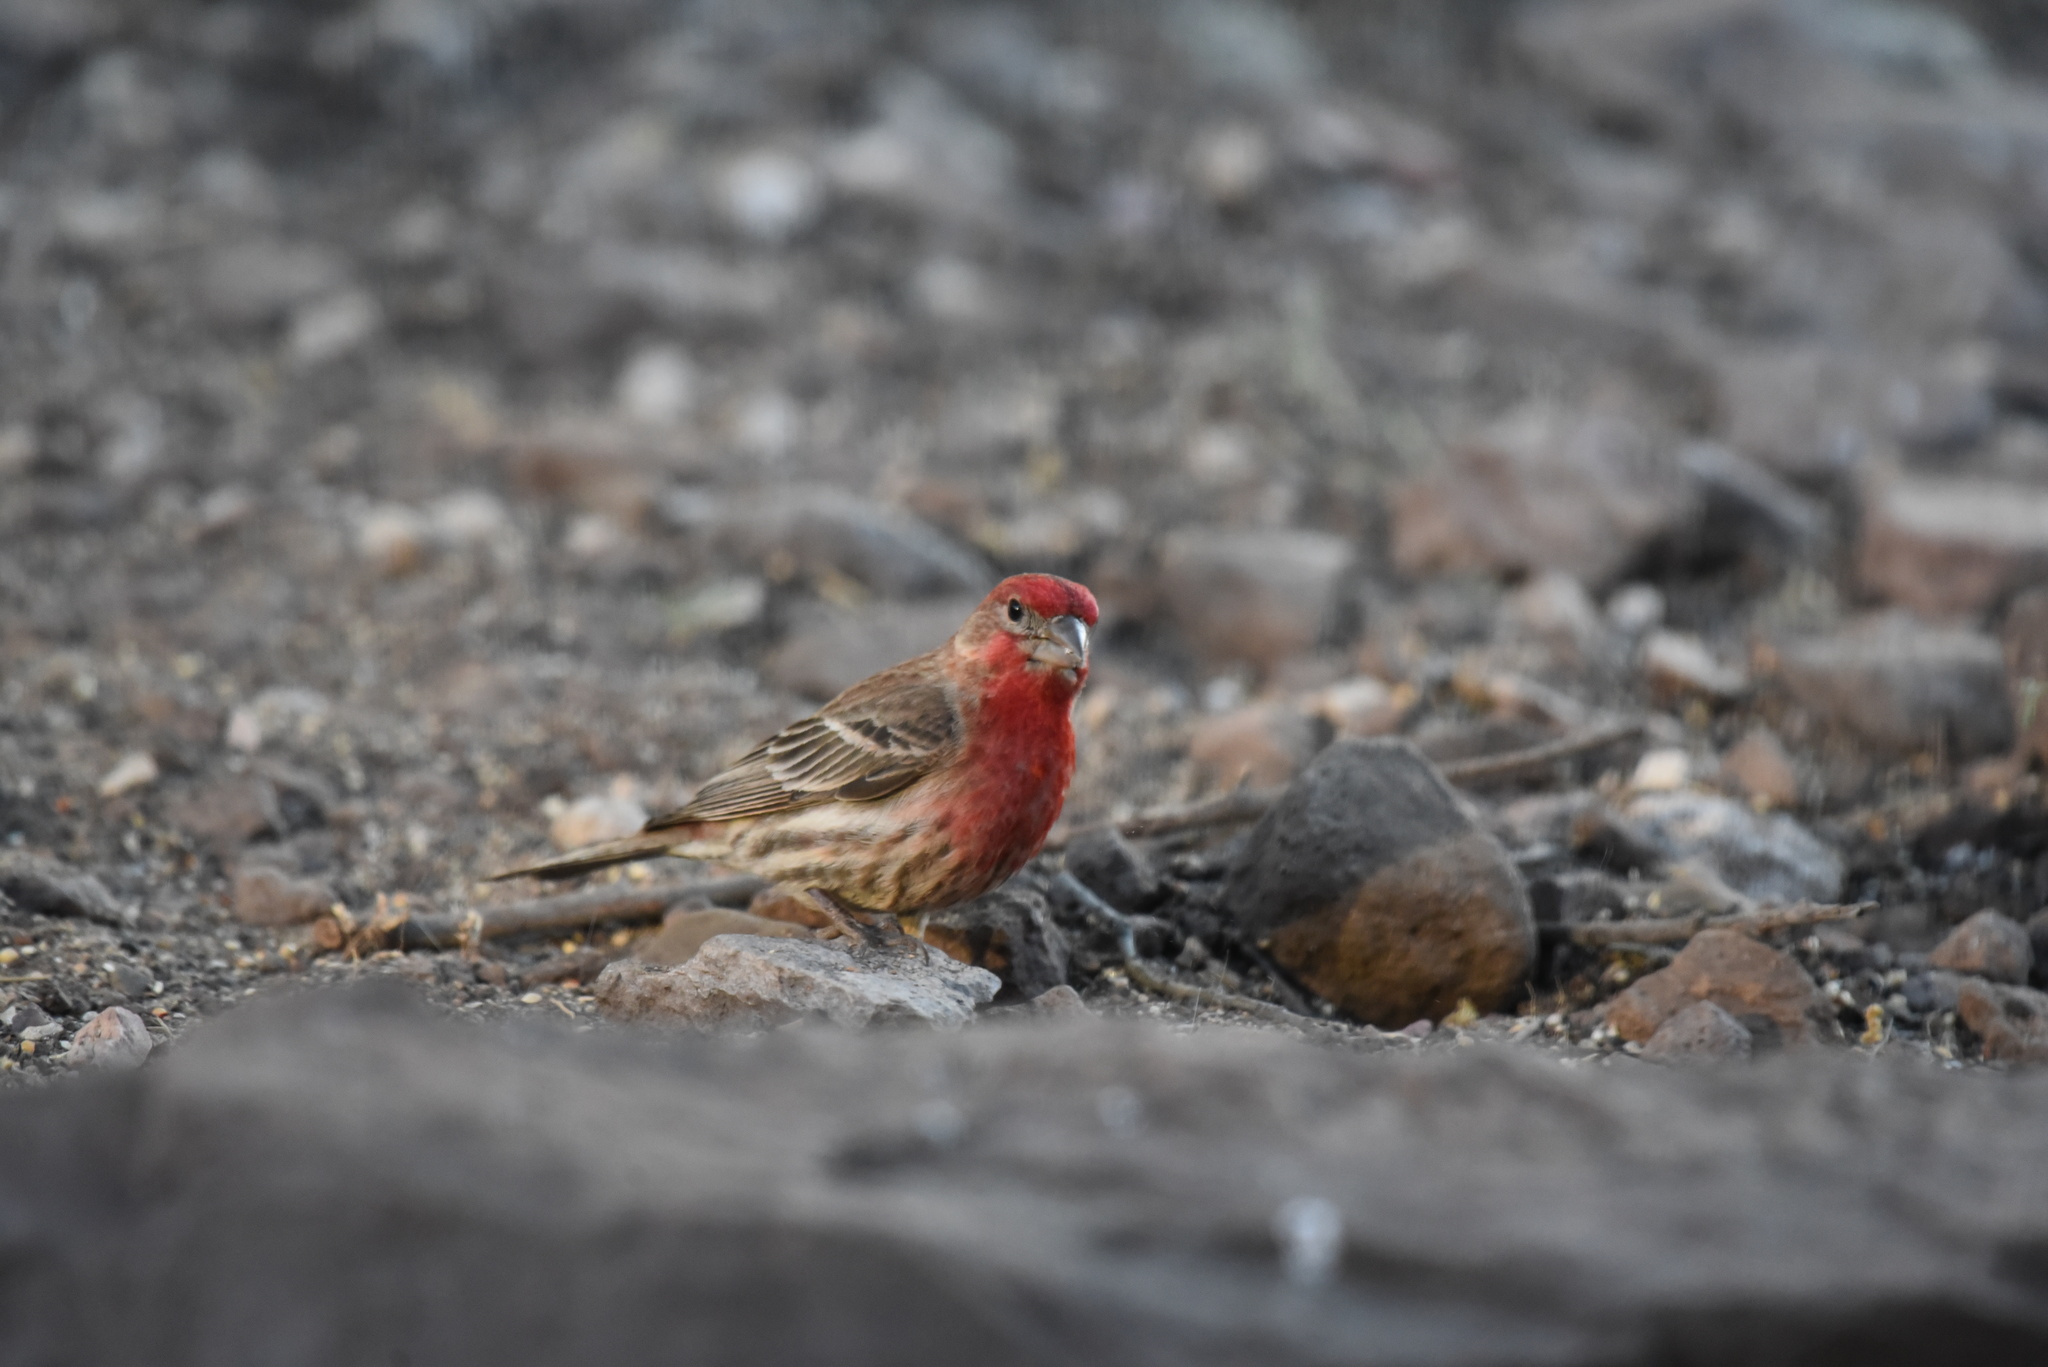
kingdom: Animalia
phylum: Chordata
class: Aves
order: Passeriformes
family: Fringillidae
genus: Haemorhous
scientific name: Haemorhous mexicanus
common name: House finch
